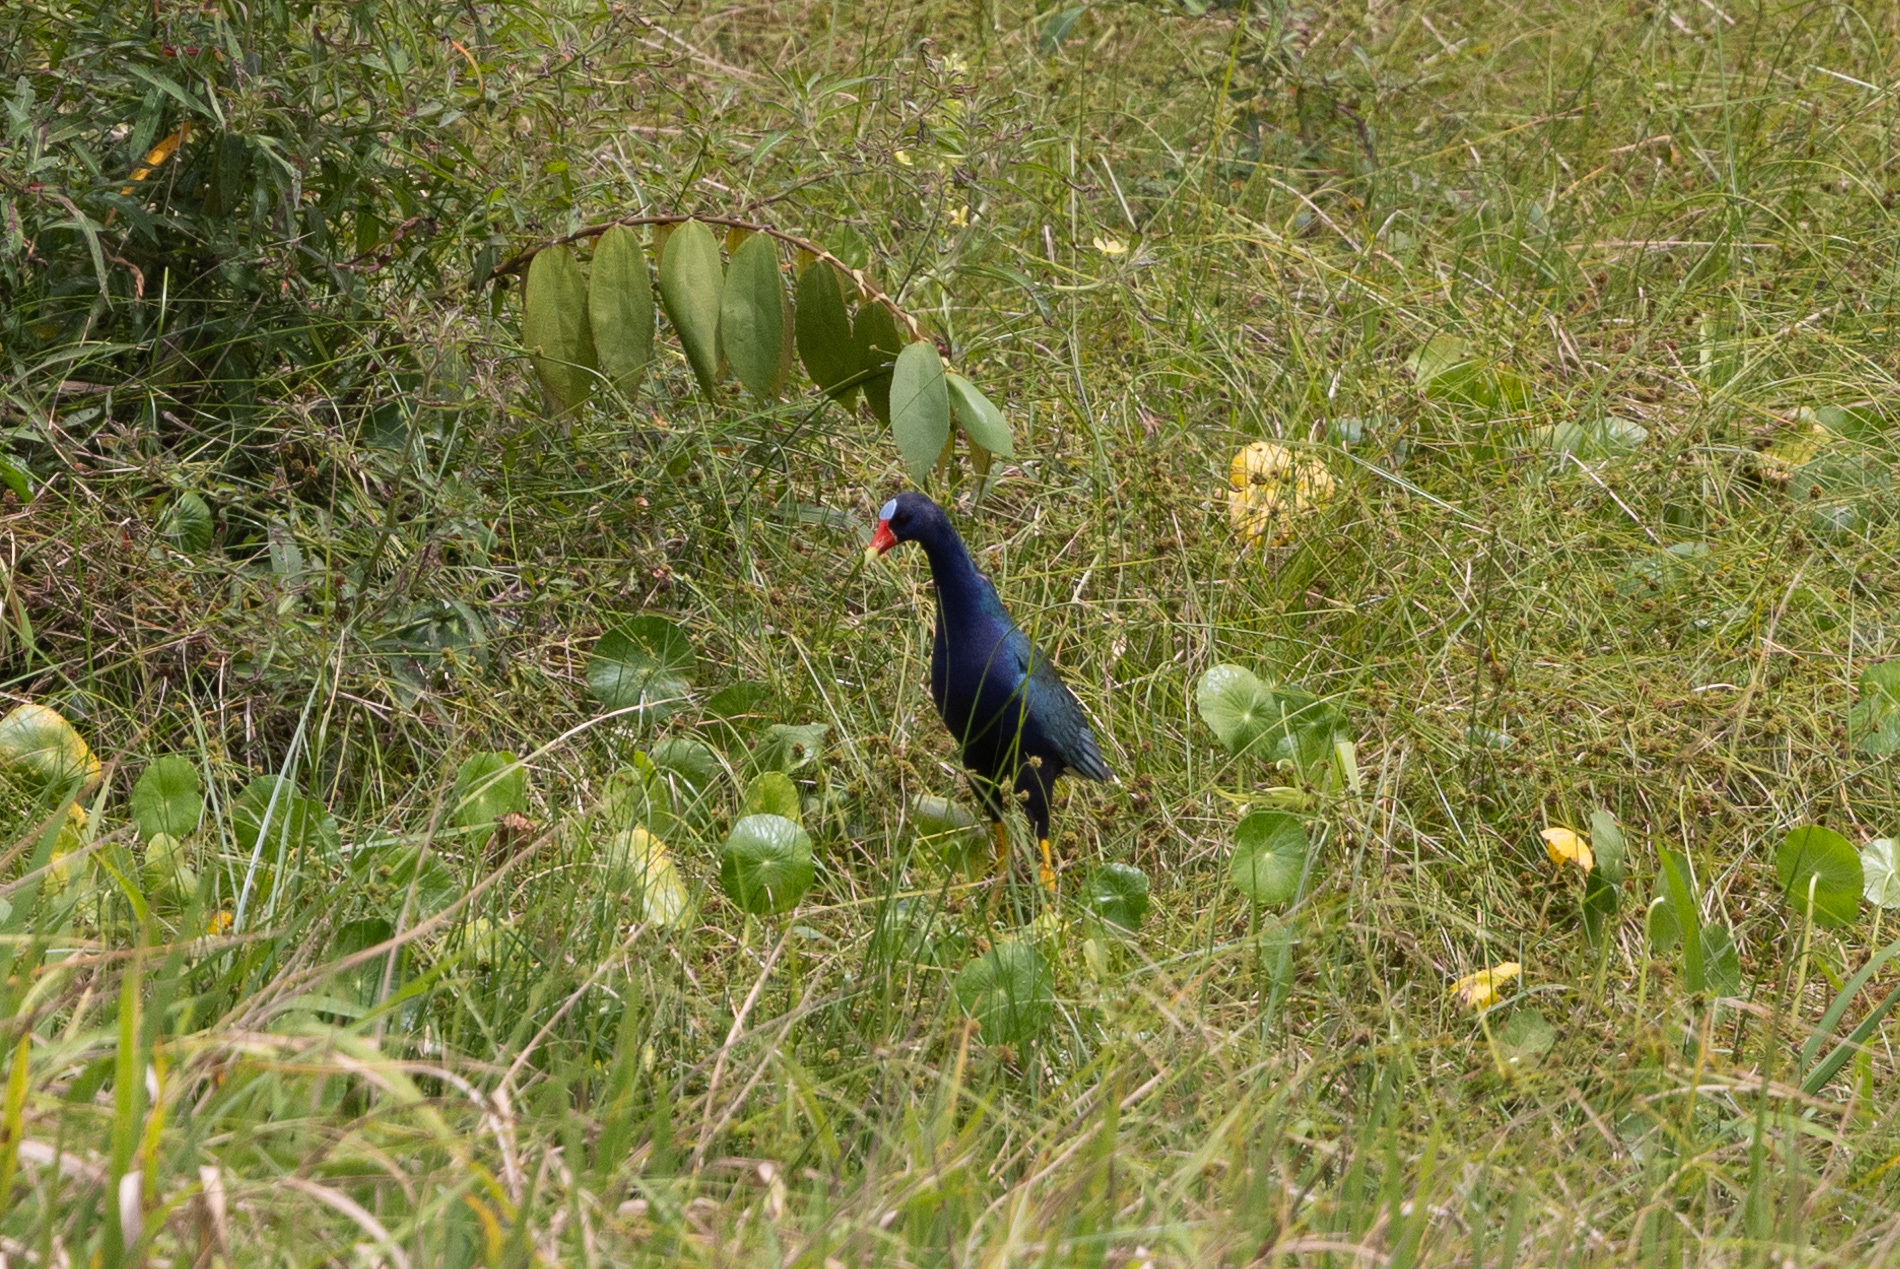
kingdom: Animalia
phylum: Chordata
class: Aves
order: Gruiformes
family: Rallidae
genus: Porphyrio
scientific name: Porphyrio martinica
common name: Purple gallinule
